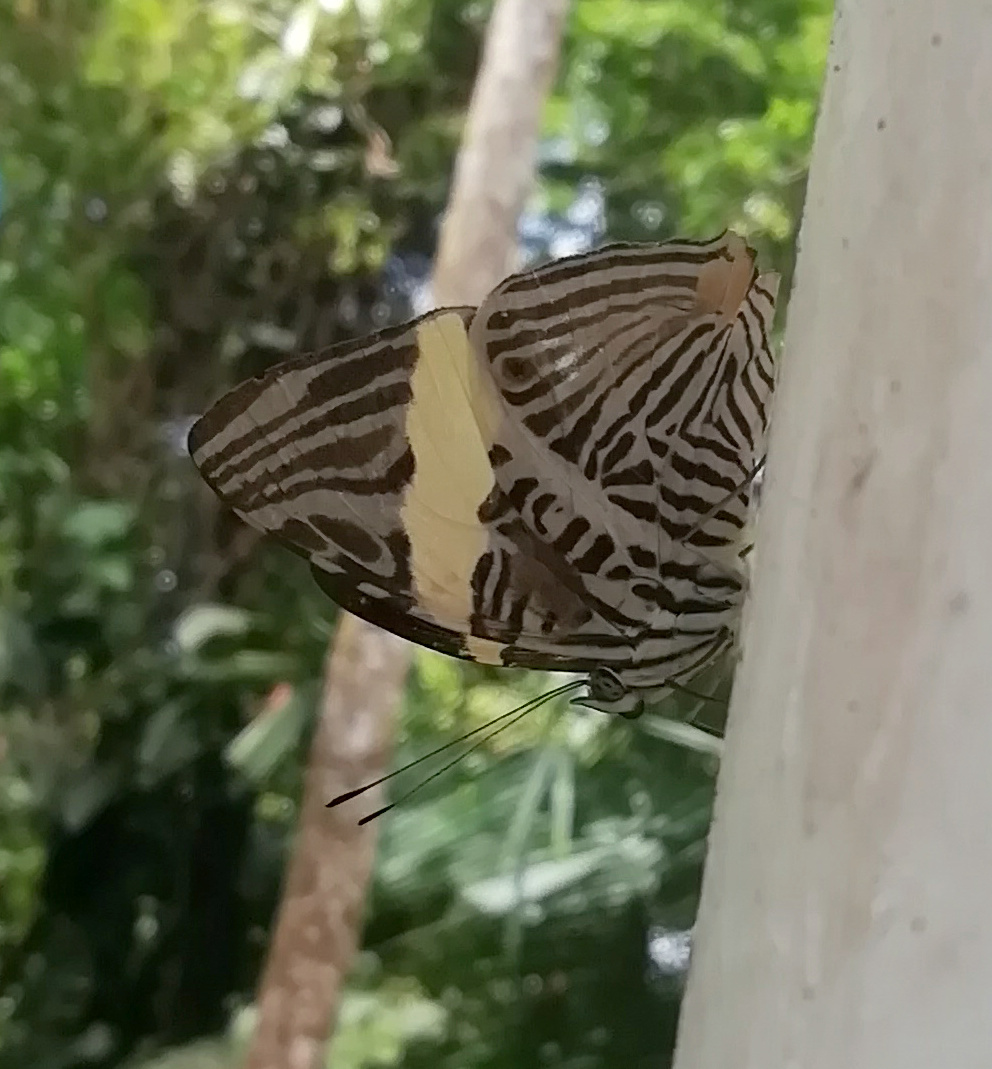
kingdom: Animalia
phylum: Arthropoda
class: Insecta
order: Lepidoptera
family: Nymphalidae
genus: Colobura
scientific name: Colobura dirce
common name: Dirce beauty
